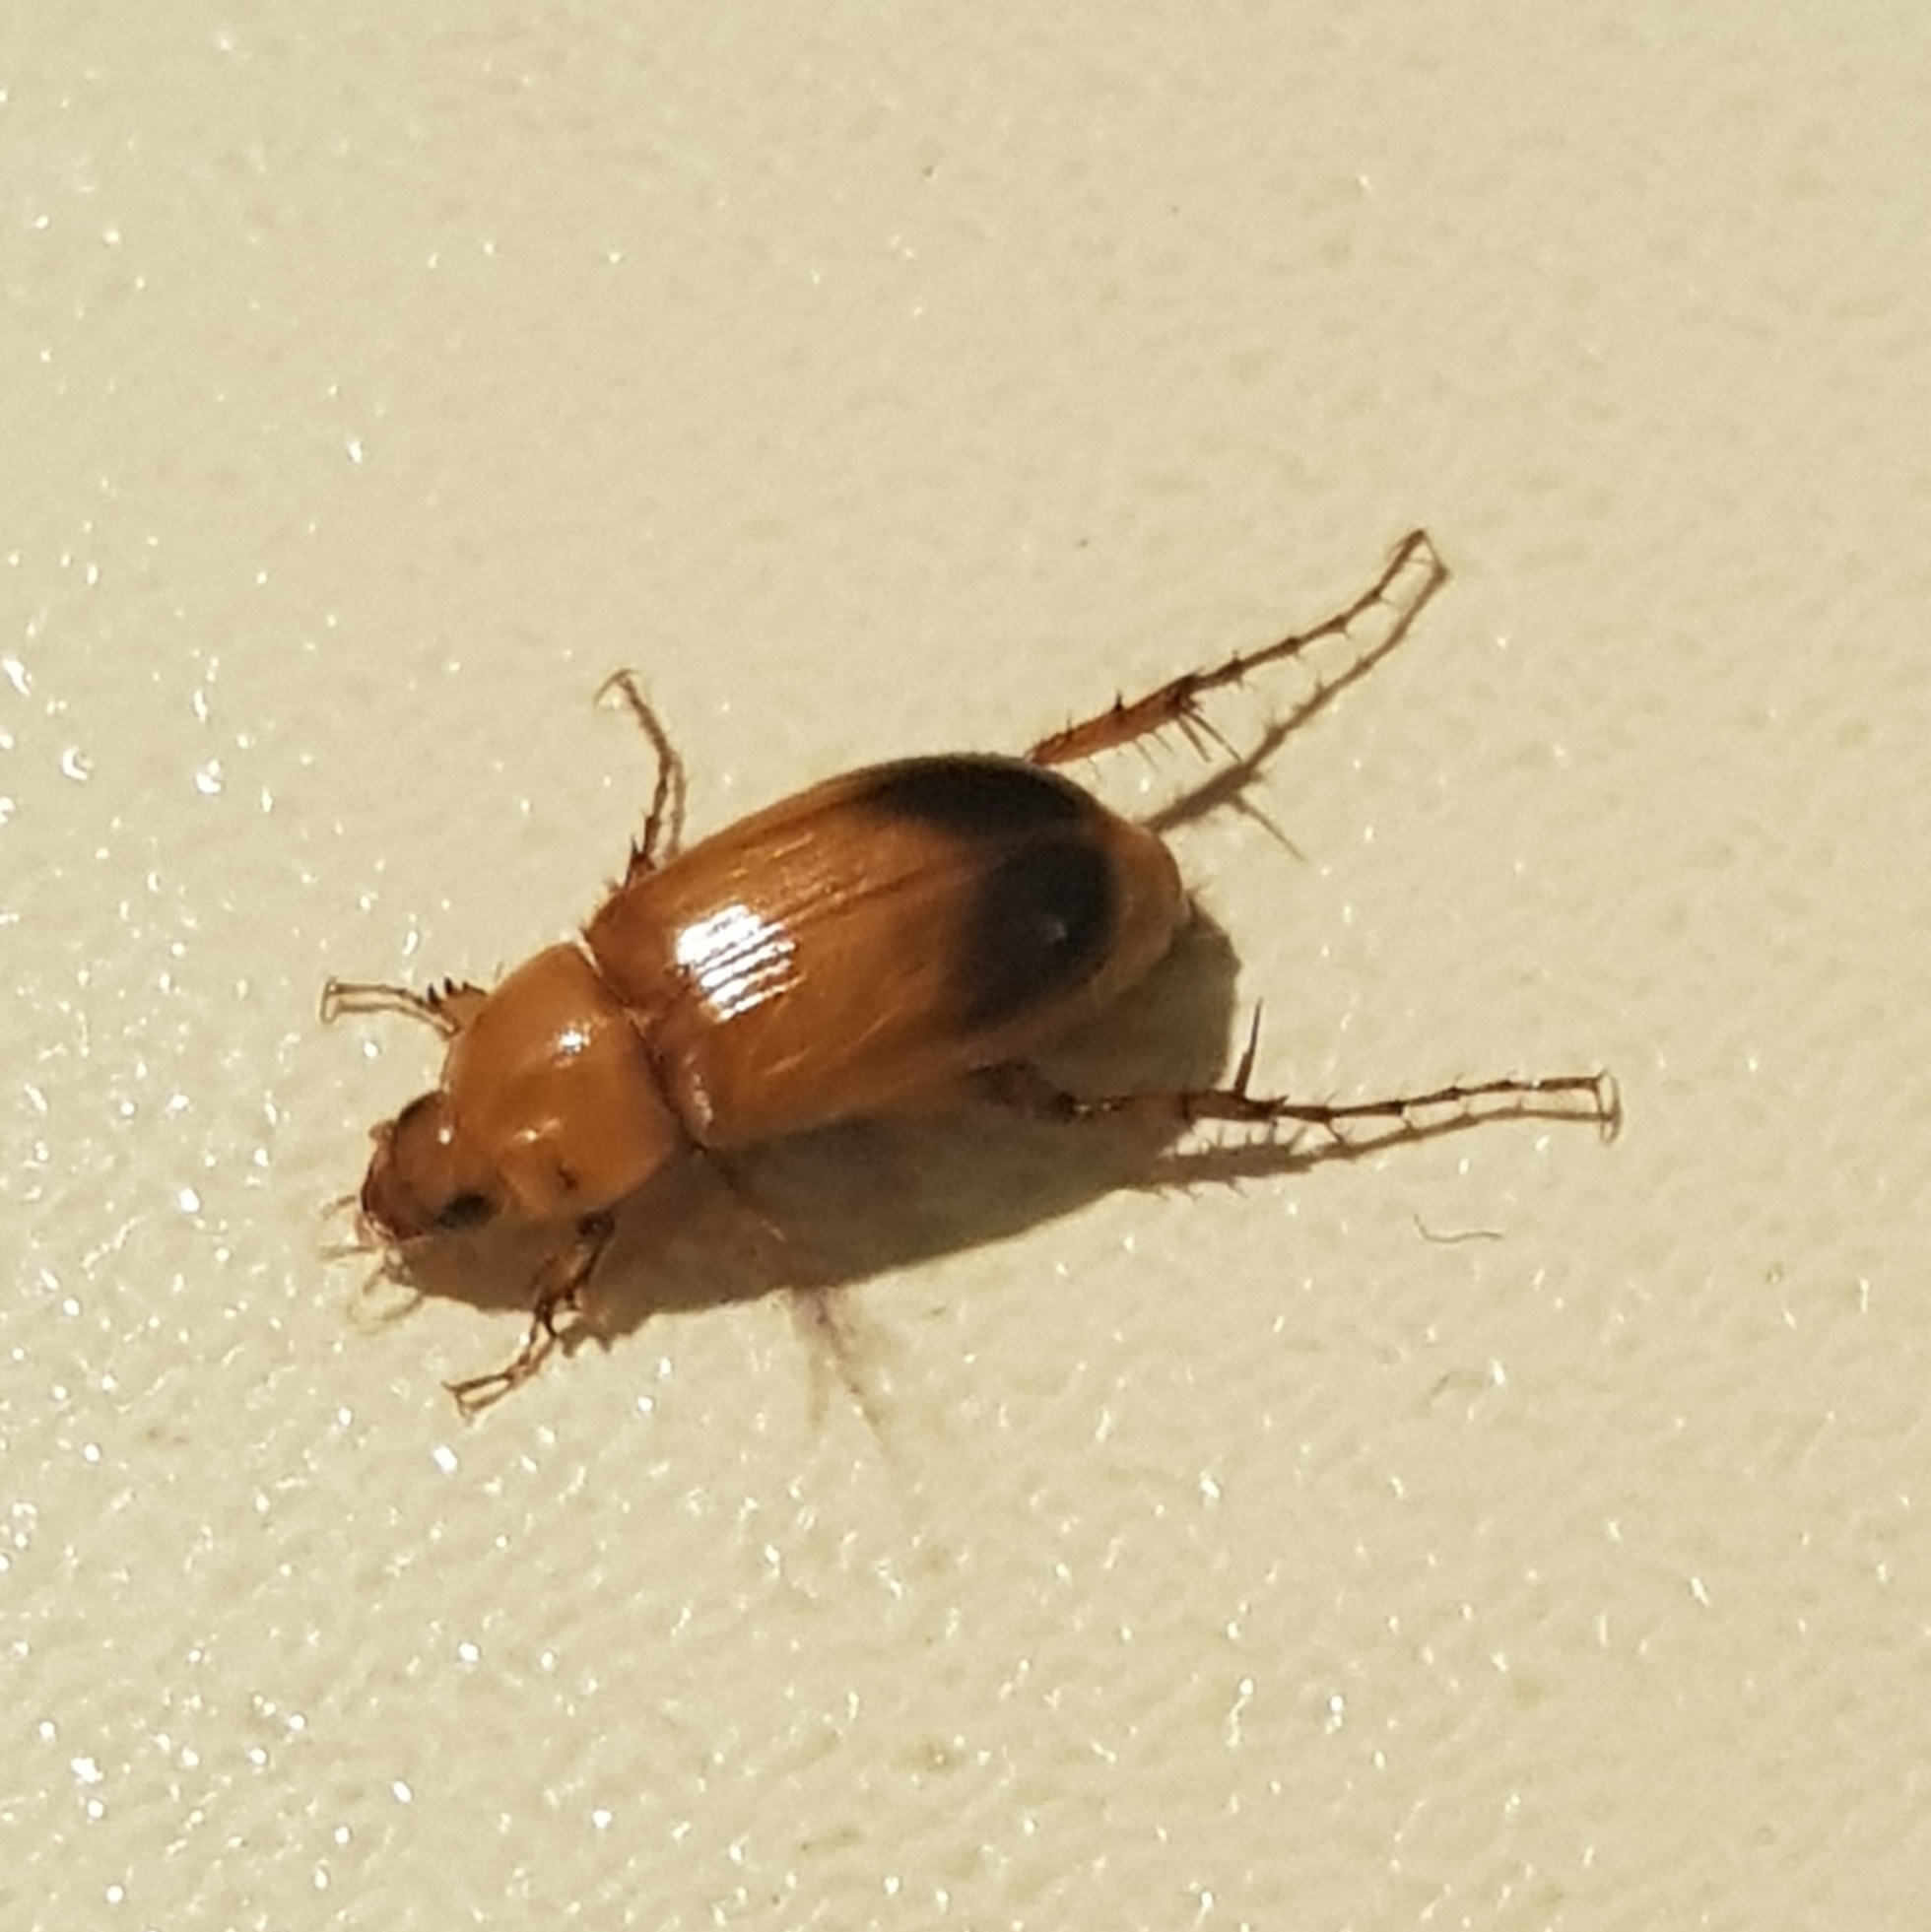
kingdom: Animalia
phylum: Arthropoda
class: Insecta
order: Coleoptera
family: Scarabaeidae
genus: Phyllotocus
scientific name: Phyllotocus macleayi
